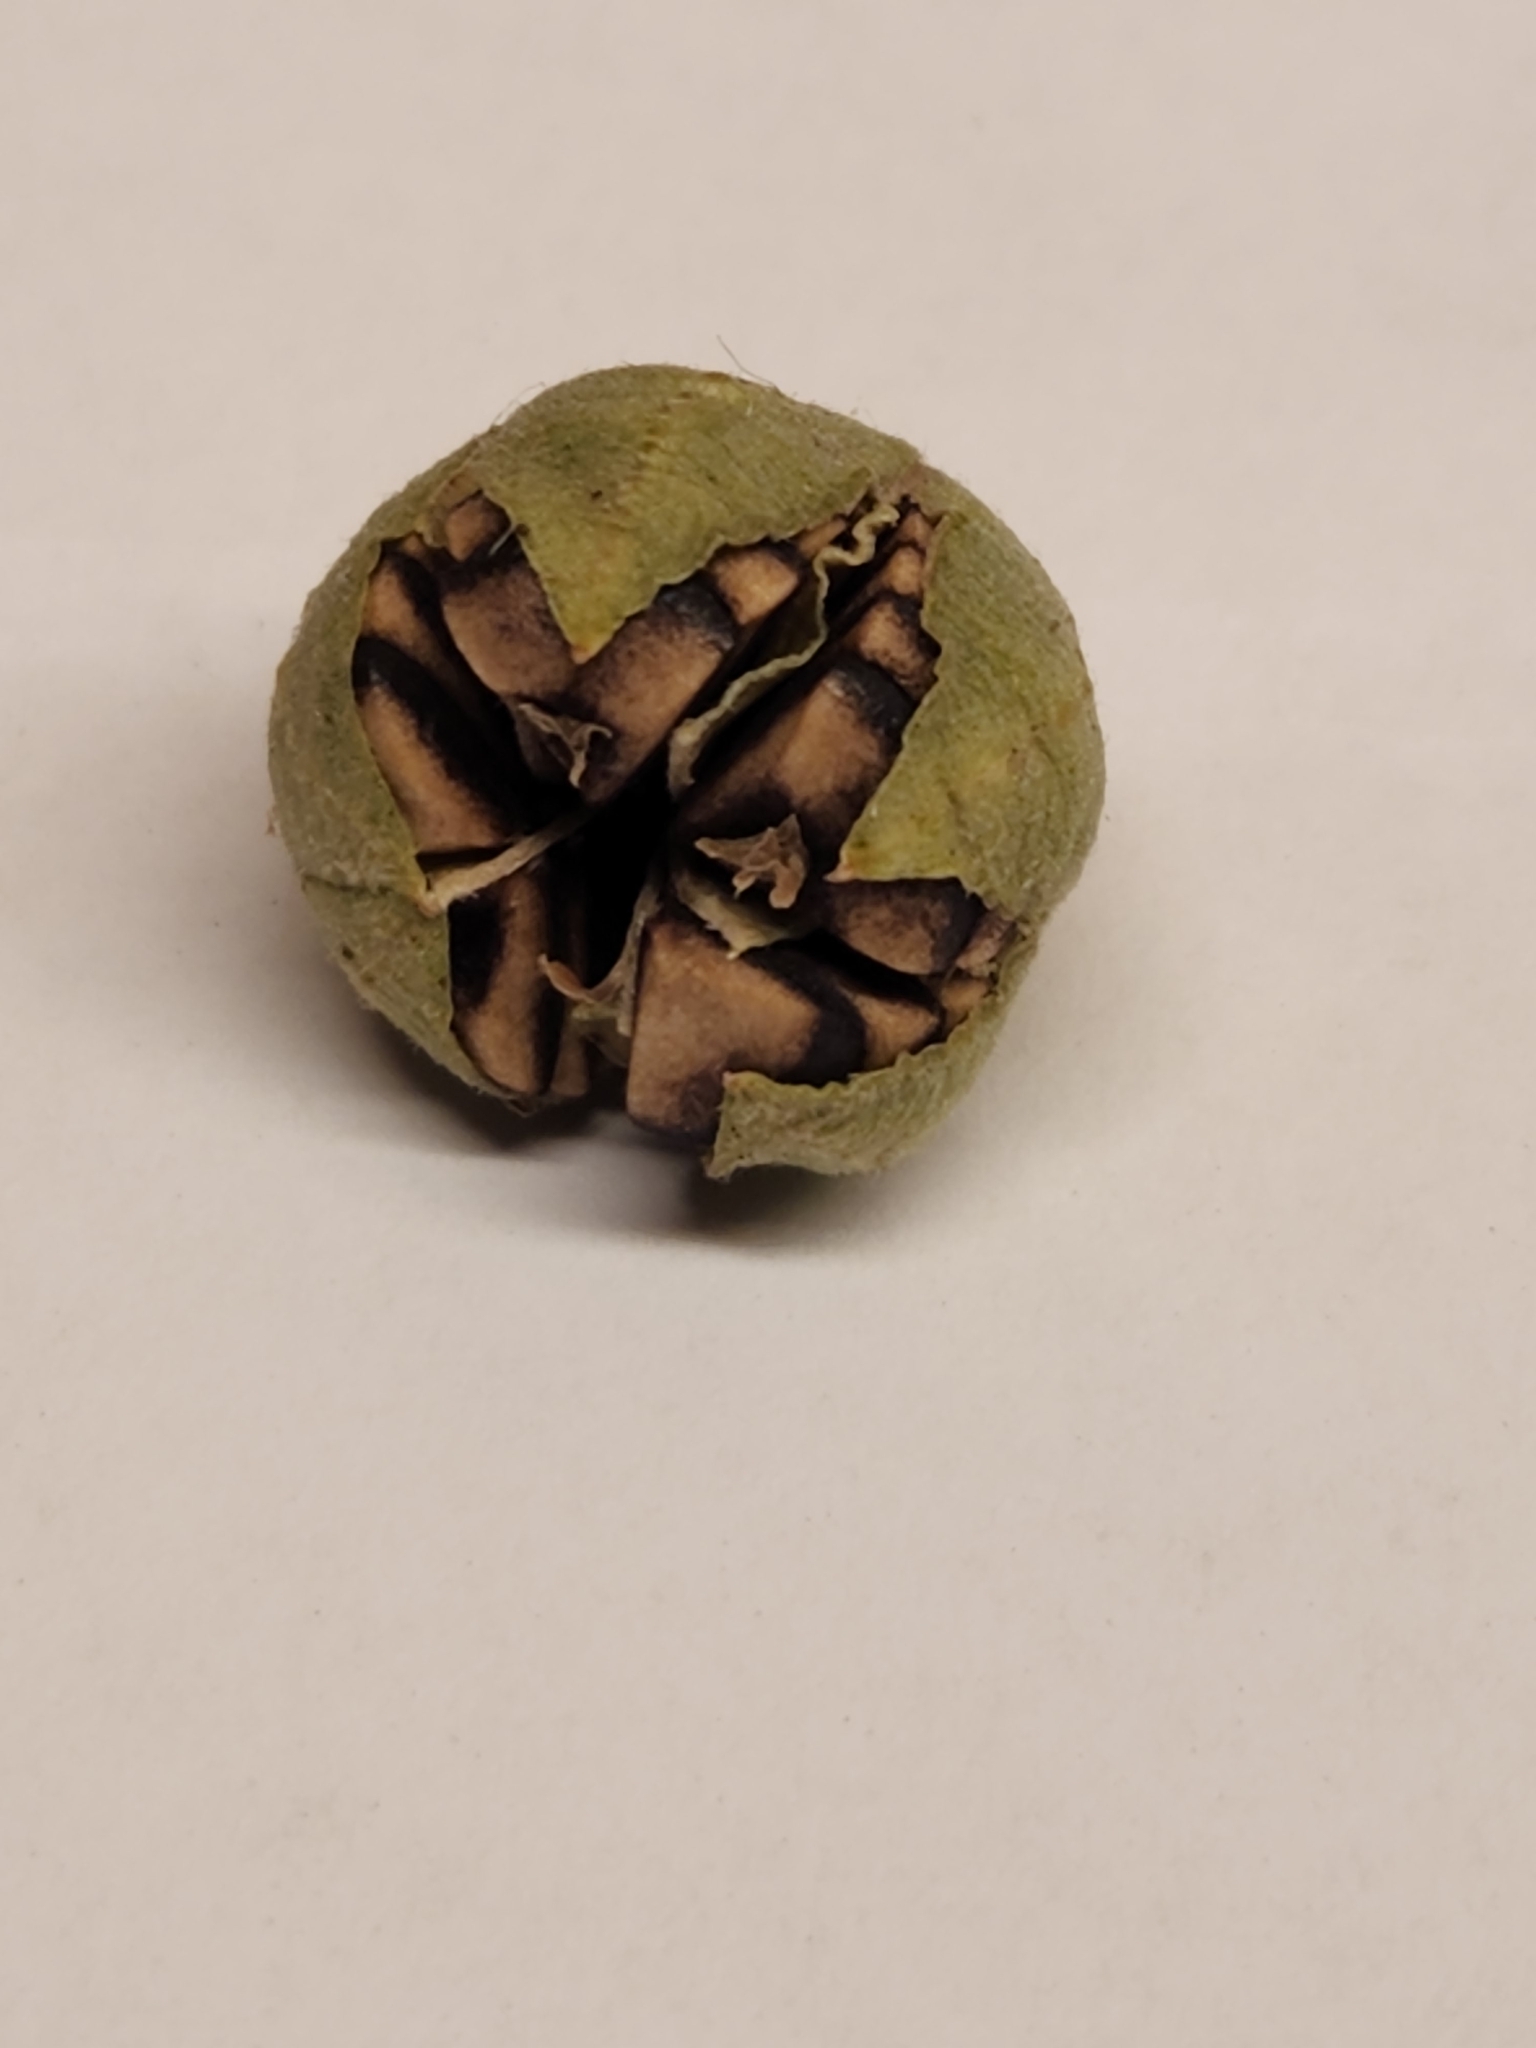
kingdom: Plantae
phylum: Tracheophyta
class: Magnoliopsida
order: Piperales
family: Aristolochiaceae
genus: Aristolochia
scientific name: Aristolochia coryi
